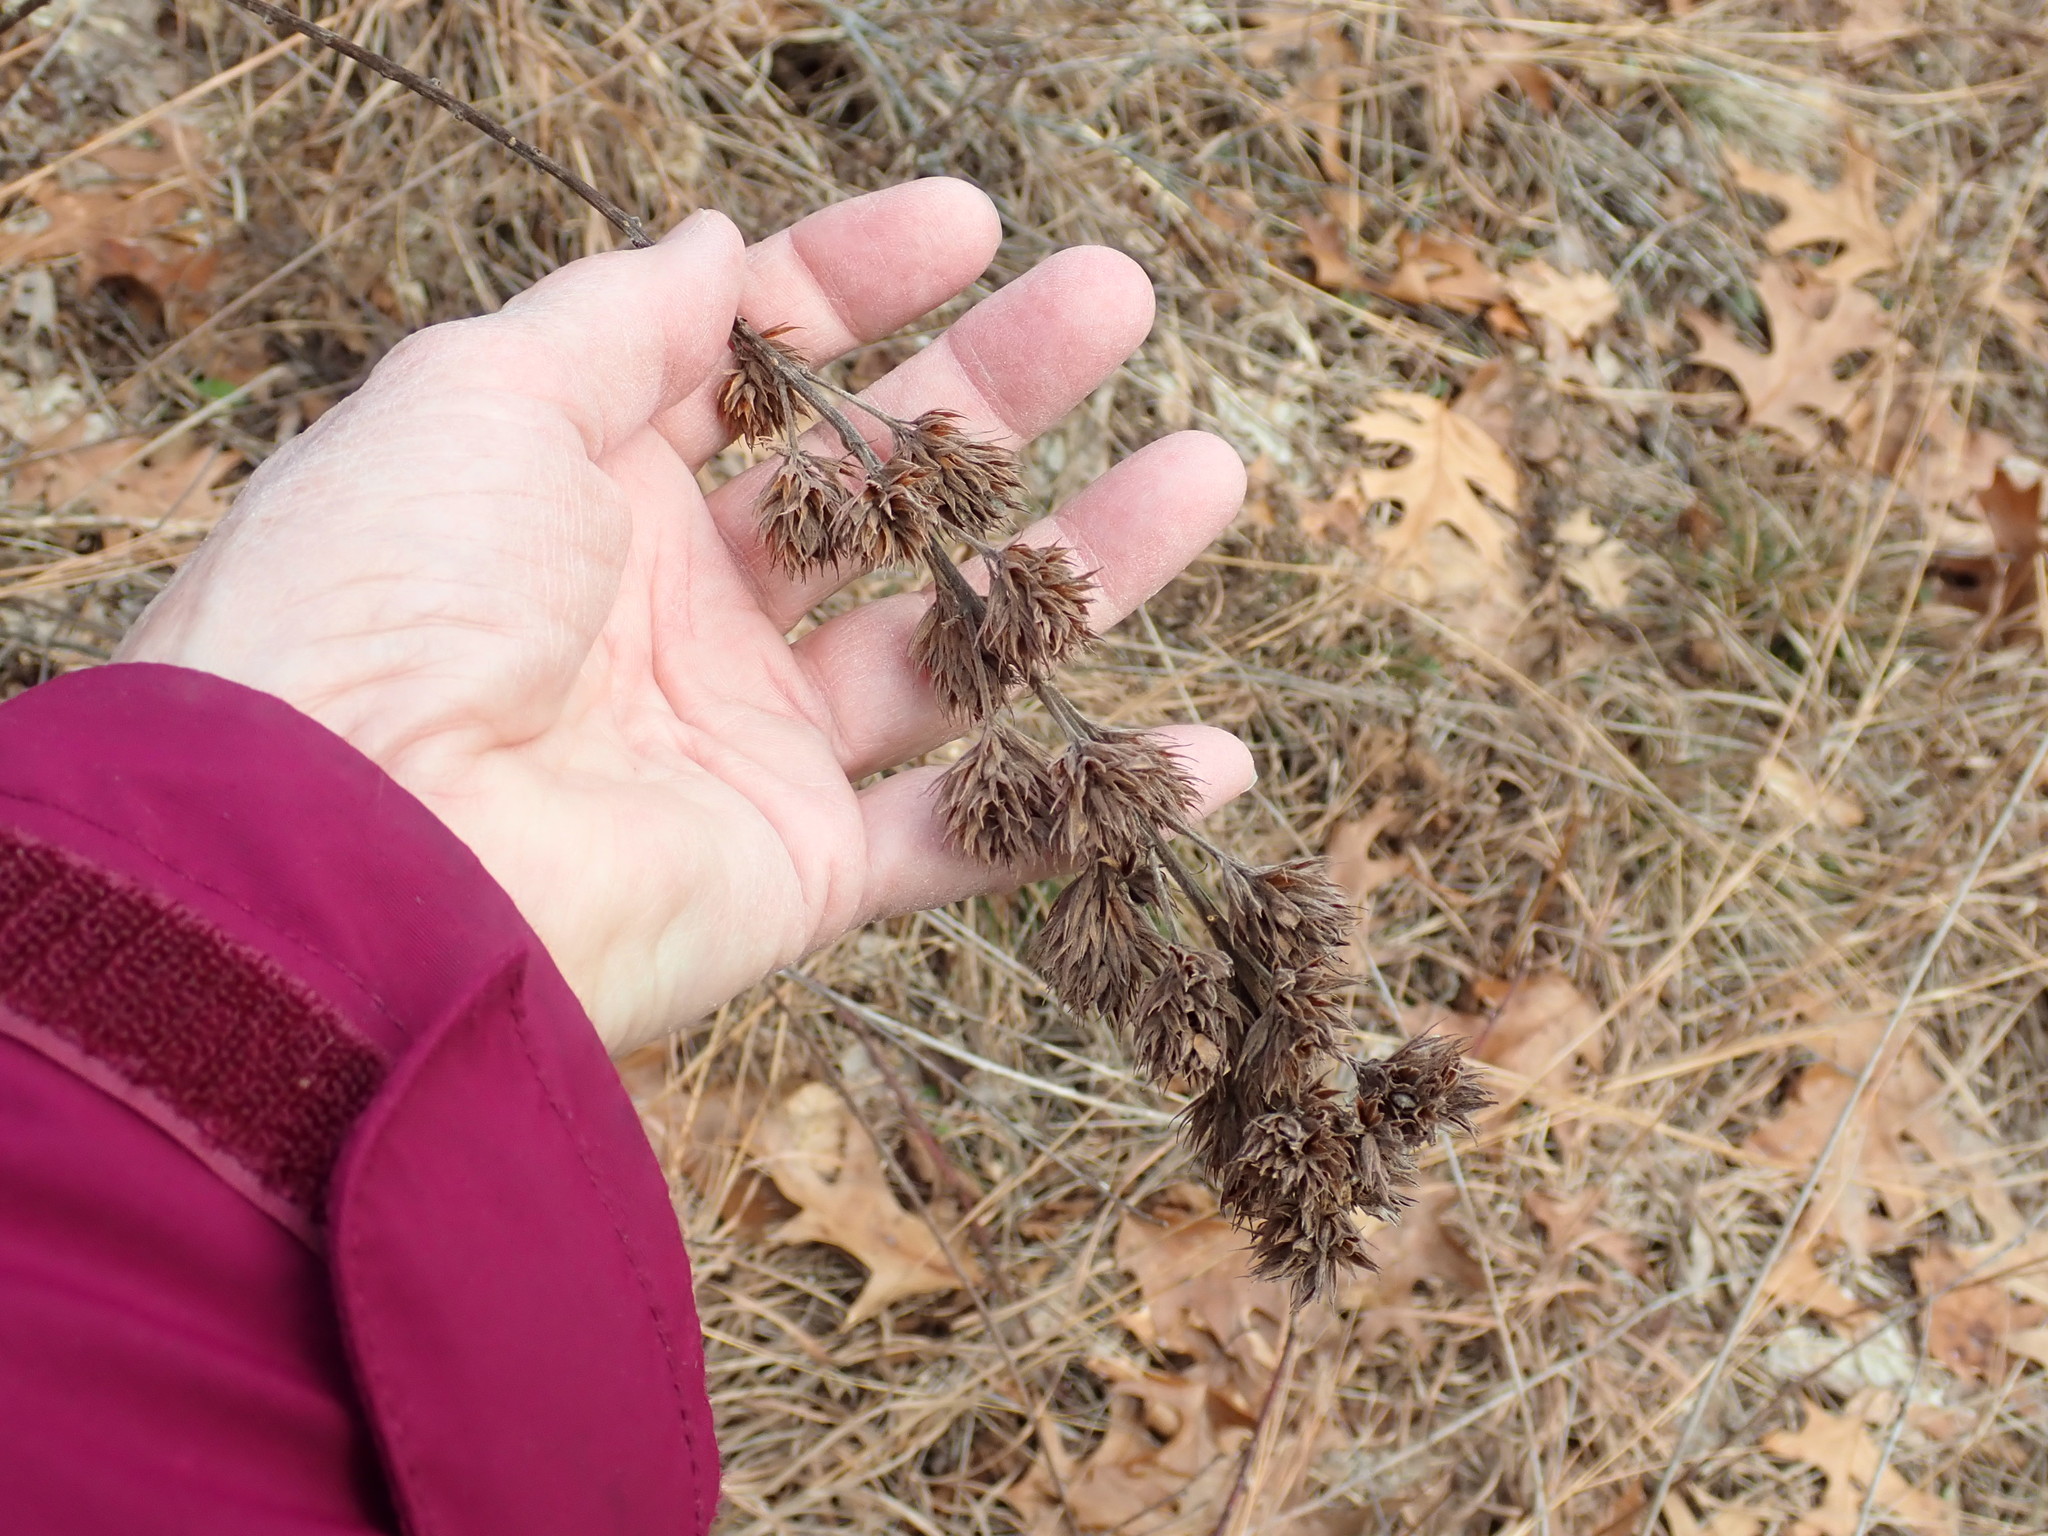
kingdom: Plantae
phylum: Tracheophyta
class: Magnoliopsida
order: Fabales
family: Fabaceae
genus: Lespedeza
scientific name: Lespedeza capitata
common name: Dusty clover
